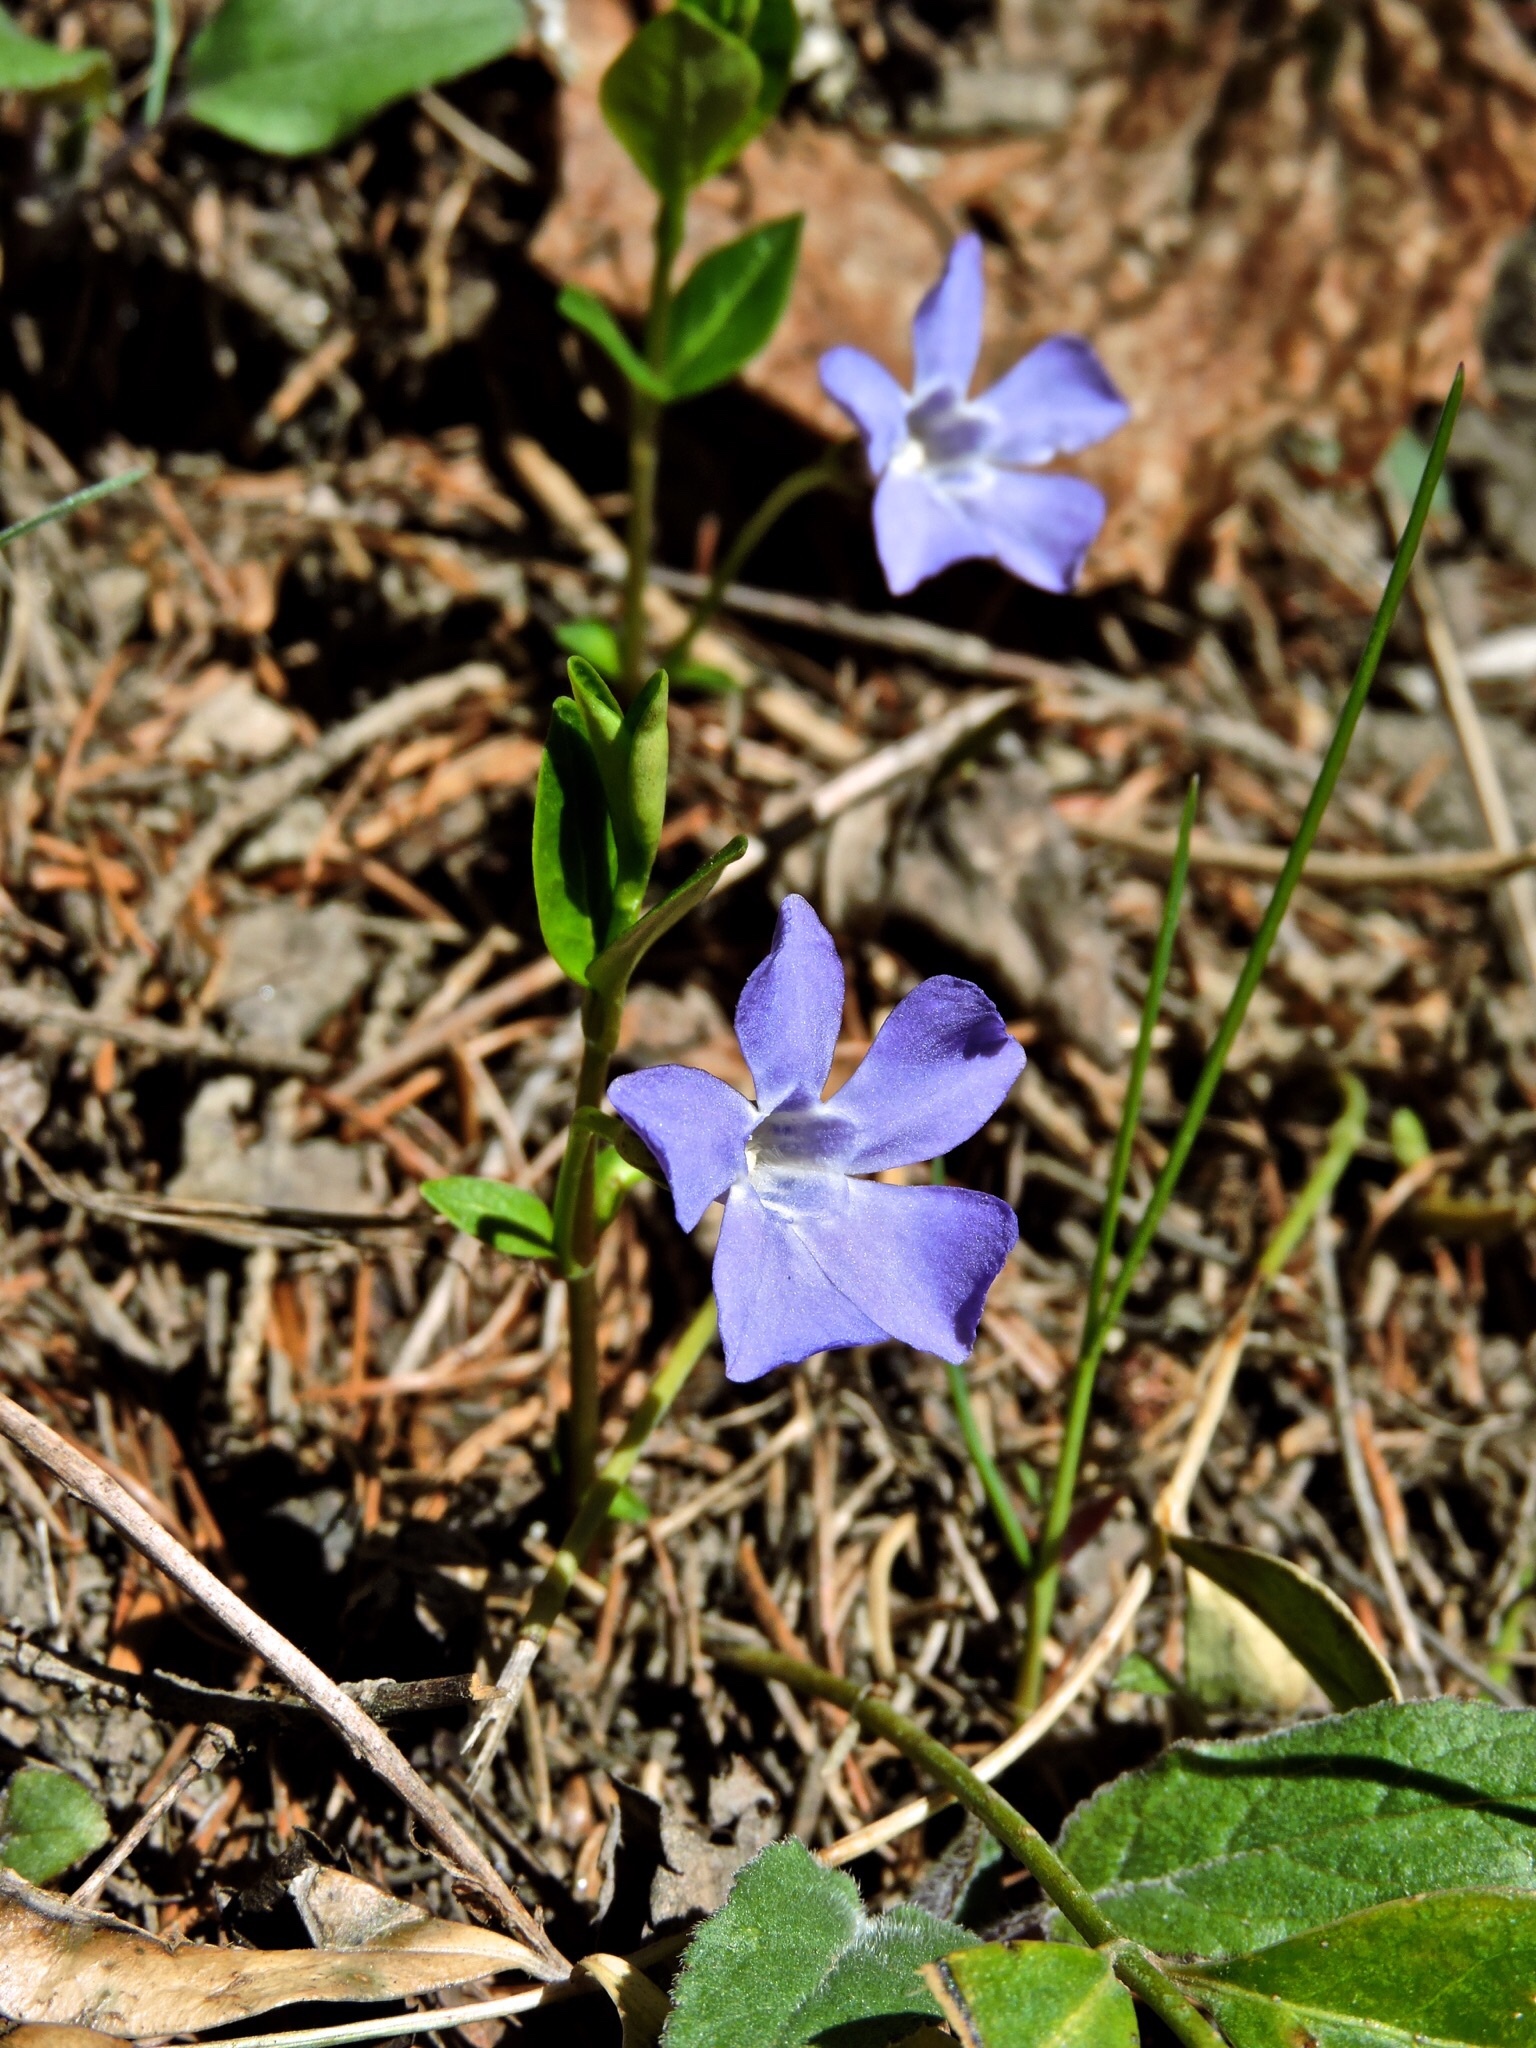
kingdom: Plantae
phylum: Tracheophyta
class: Magnoliopsida
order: Gentianales
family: Apocynaceae
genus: Vinca
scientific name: Vinca minor
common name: Lesser periwinkle
